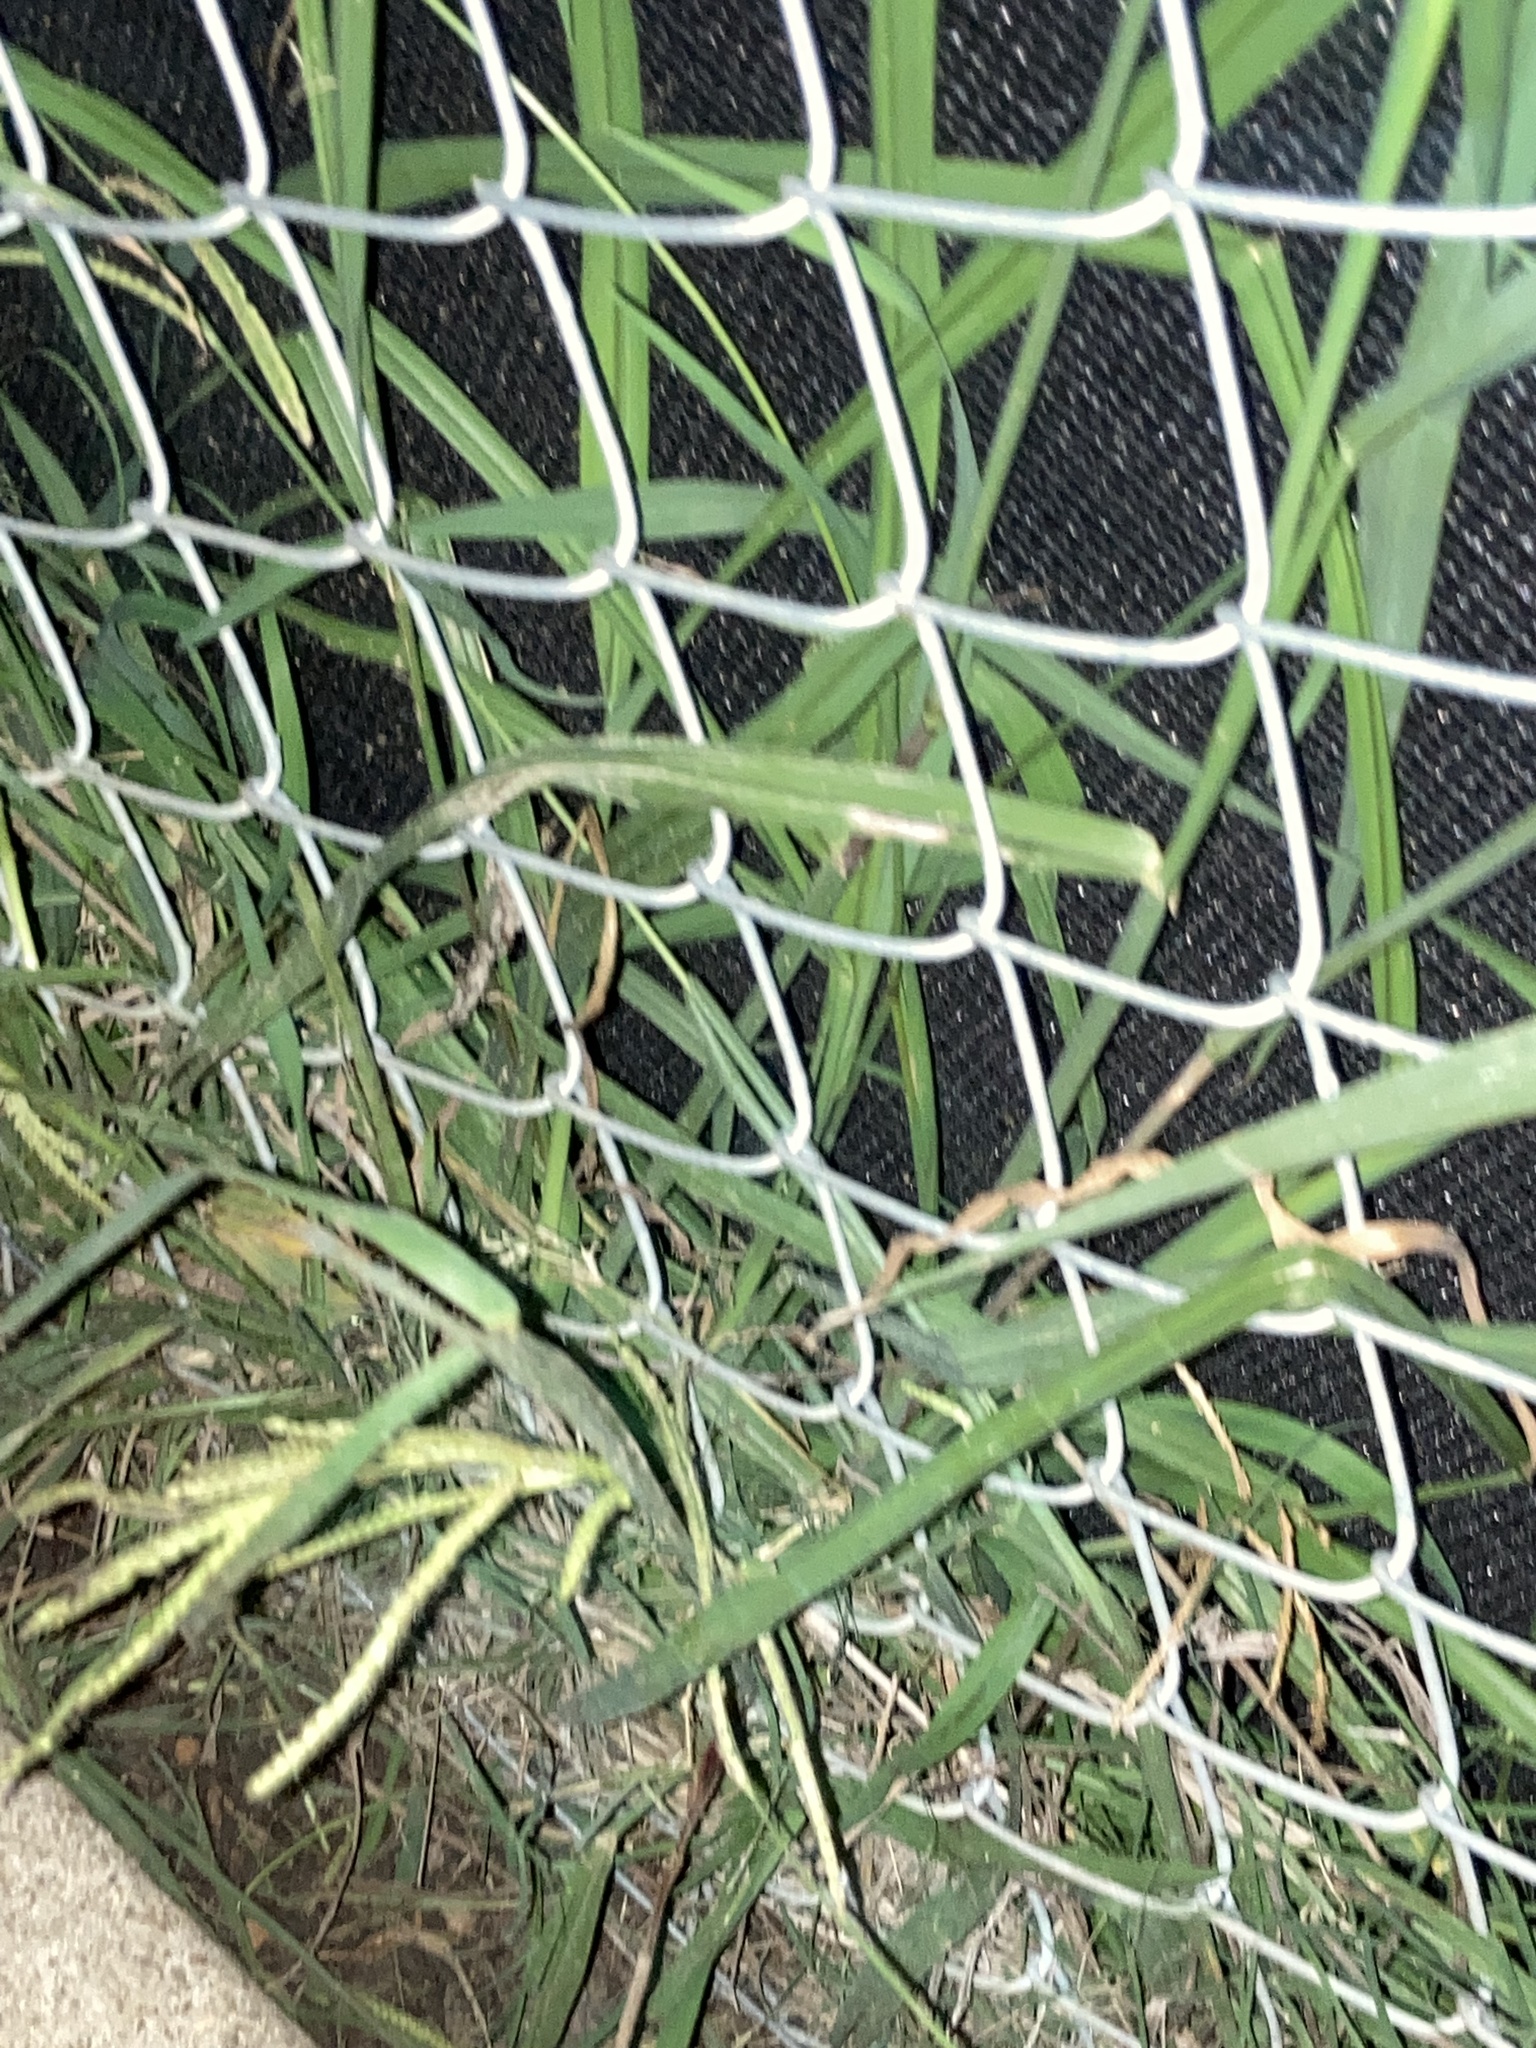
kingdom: Plantae
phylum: Tracheophyta
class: Liliopsida
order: Poales
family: Poaceae
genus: Paspalum
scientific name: Paspalum dilatatum
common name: Dallisgrass
